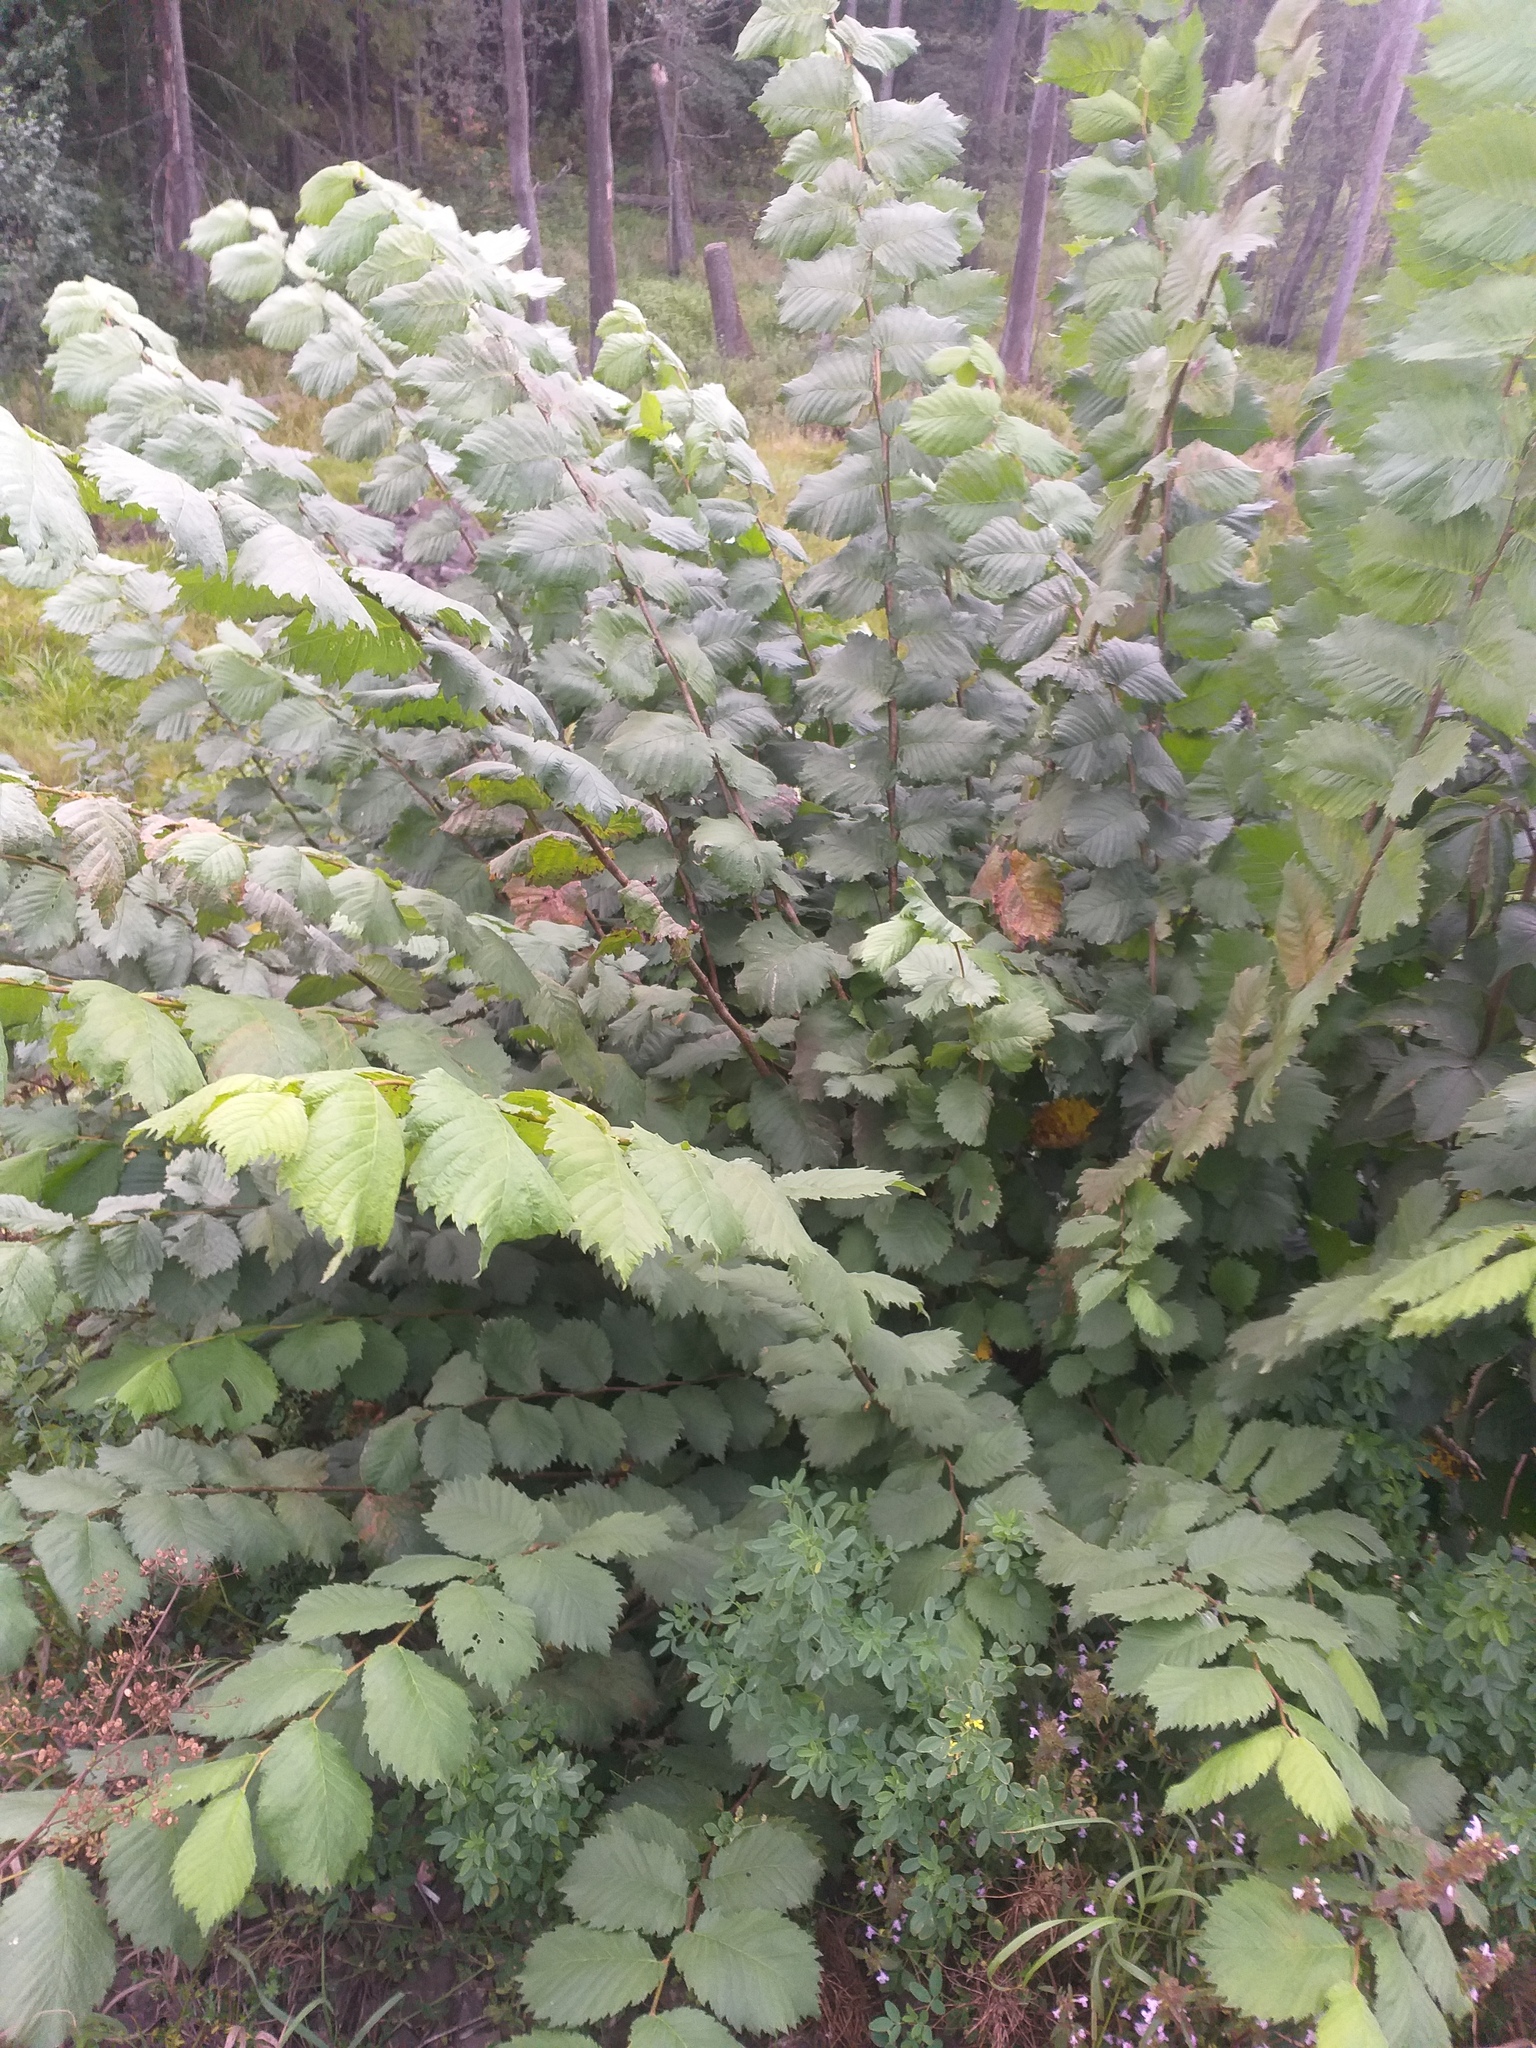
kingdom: Plantae
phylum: Tracheophyta
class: Magnoliopsida
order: Rosales
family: Ulmaceae
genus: Ulmus
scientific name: Ulmus laevis
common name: European white-elm
